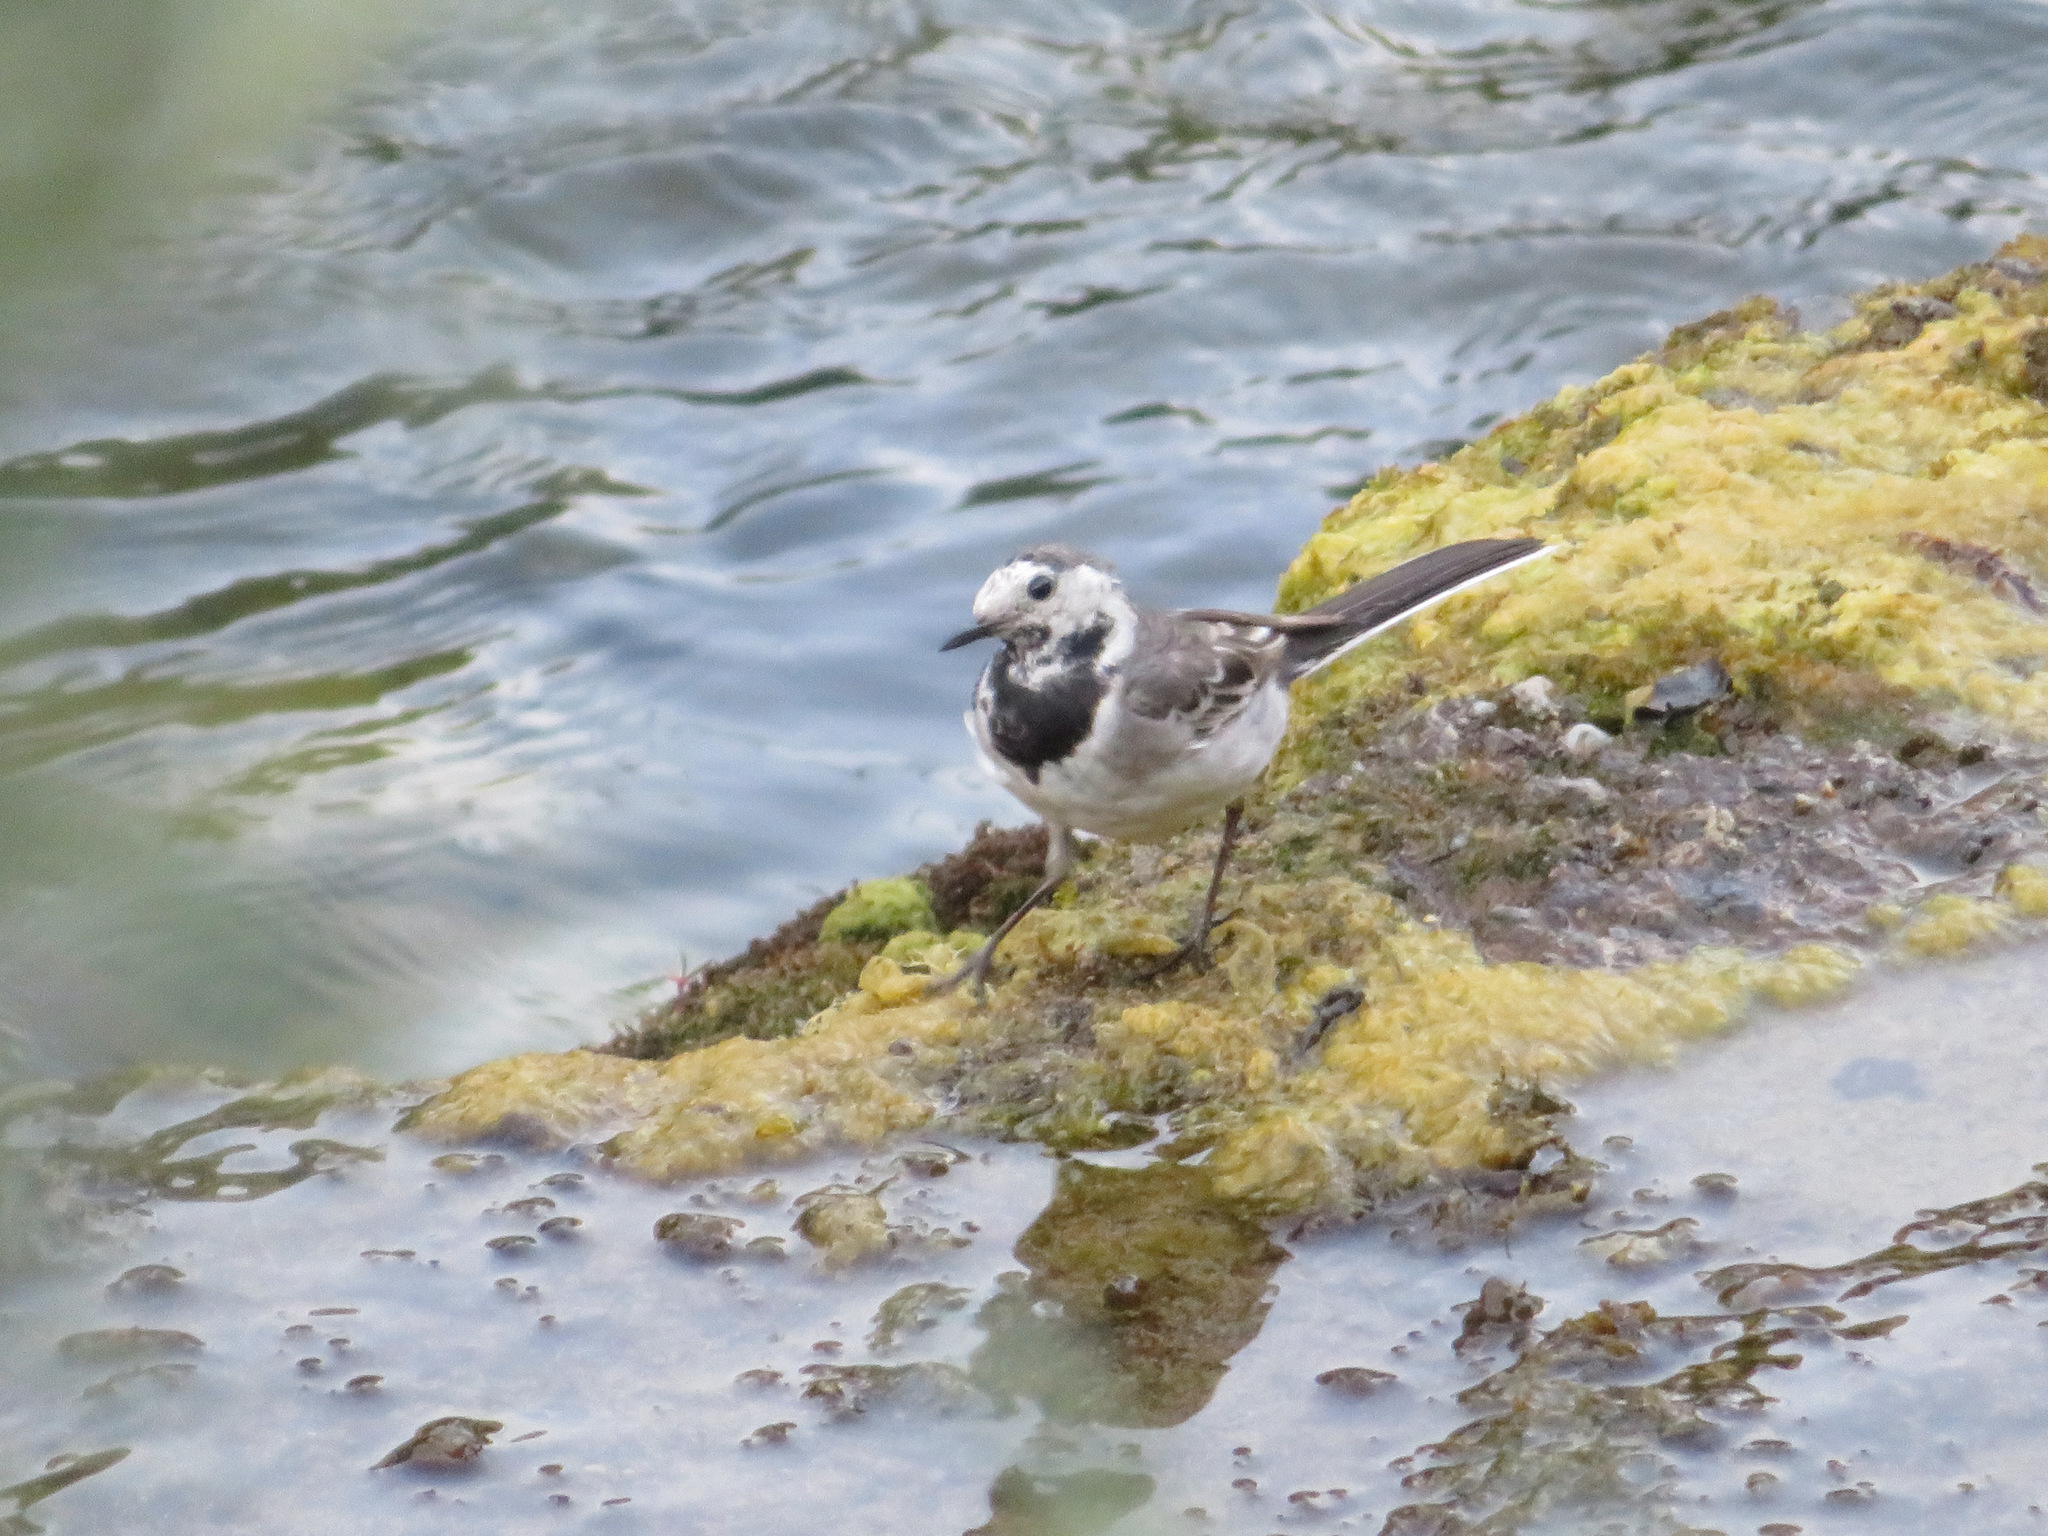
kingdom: Animalia
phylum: Chordata
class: Aves
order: Passeriformes
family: Motacillidae
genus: Motacilla
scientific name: Motacilla alba
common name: White wagtail
